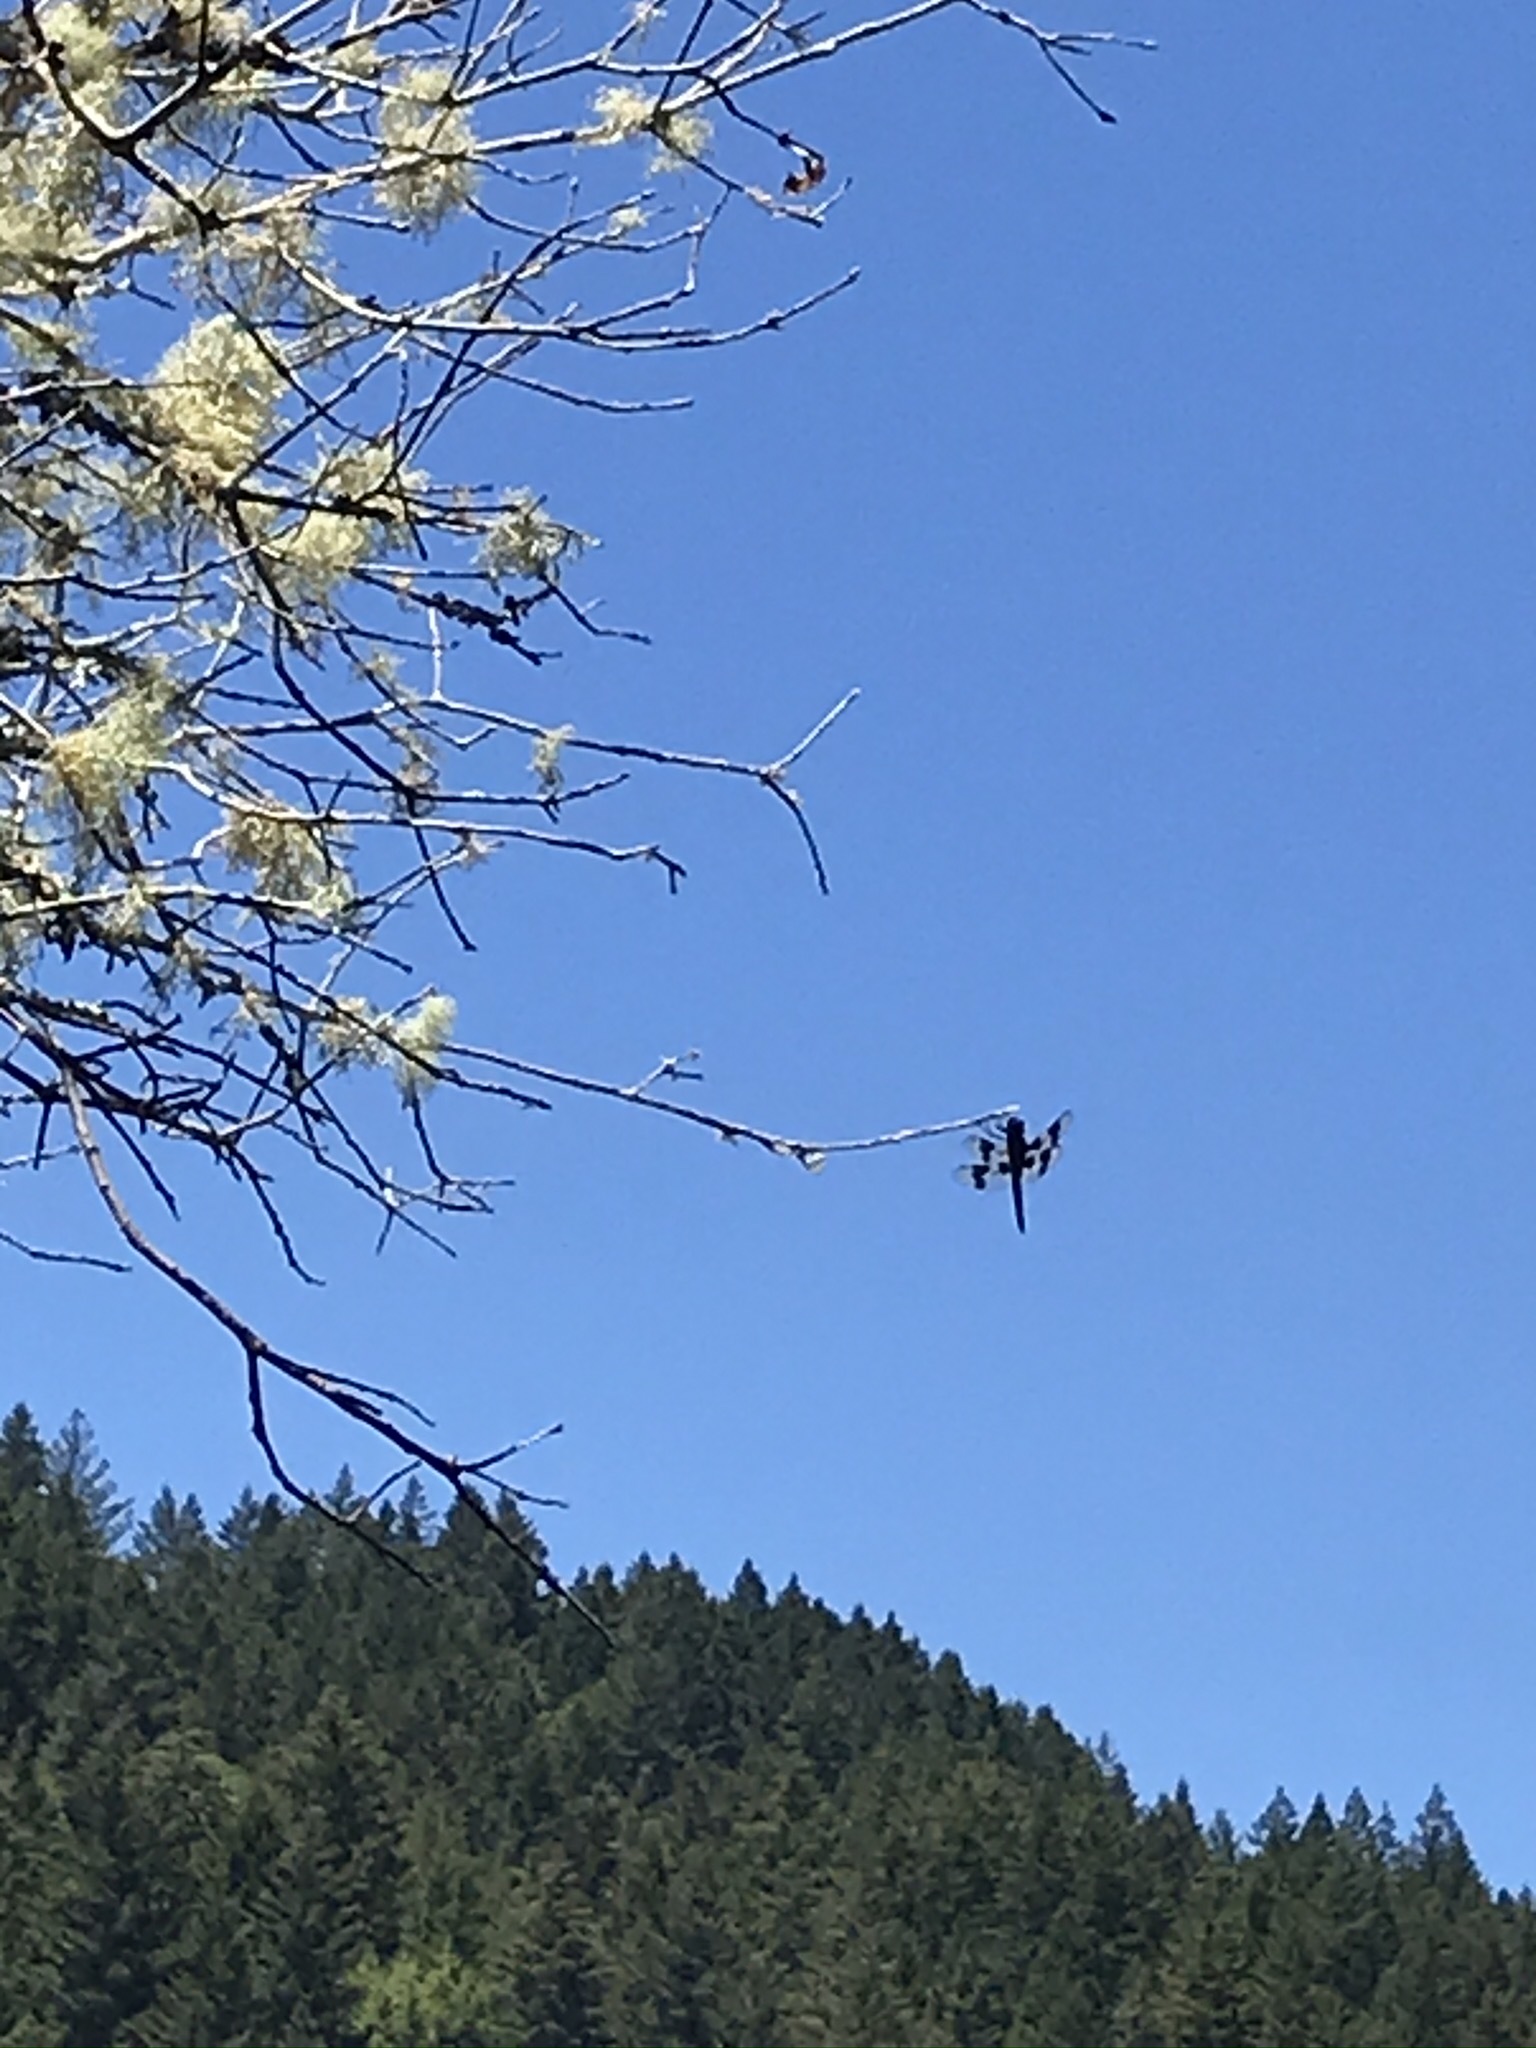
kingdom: Animalia
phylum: Arthropoda
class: Insecta
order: Odonata
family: Libellulidae
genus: Libellula
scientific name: Libellula forensis
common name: Eight-spotted skimmer
